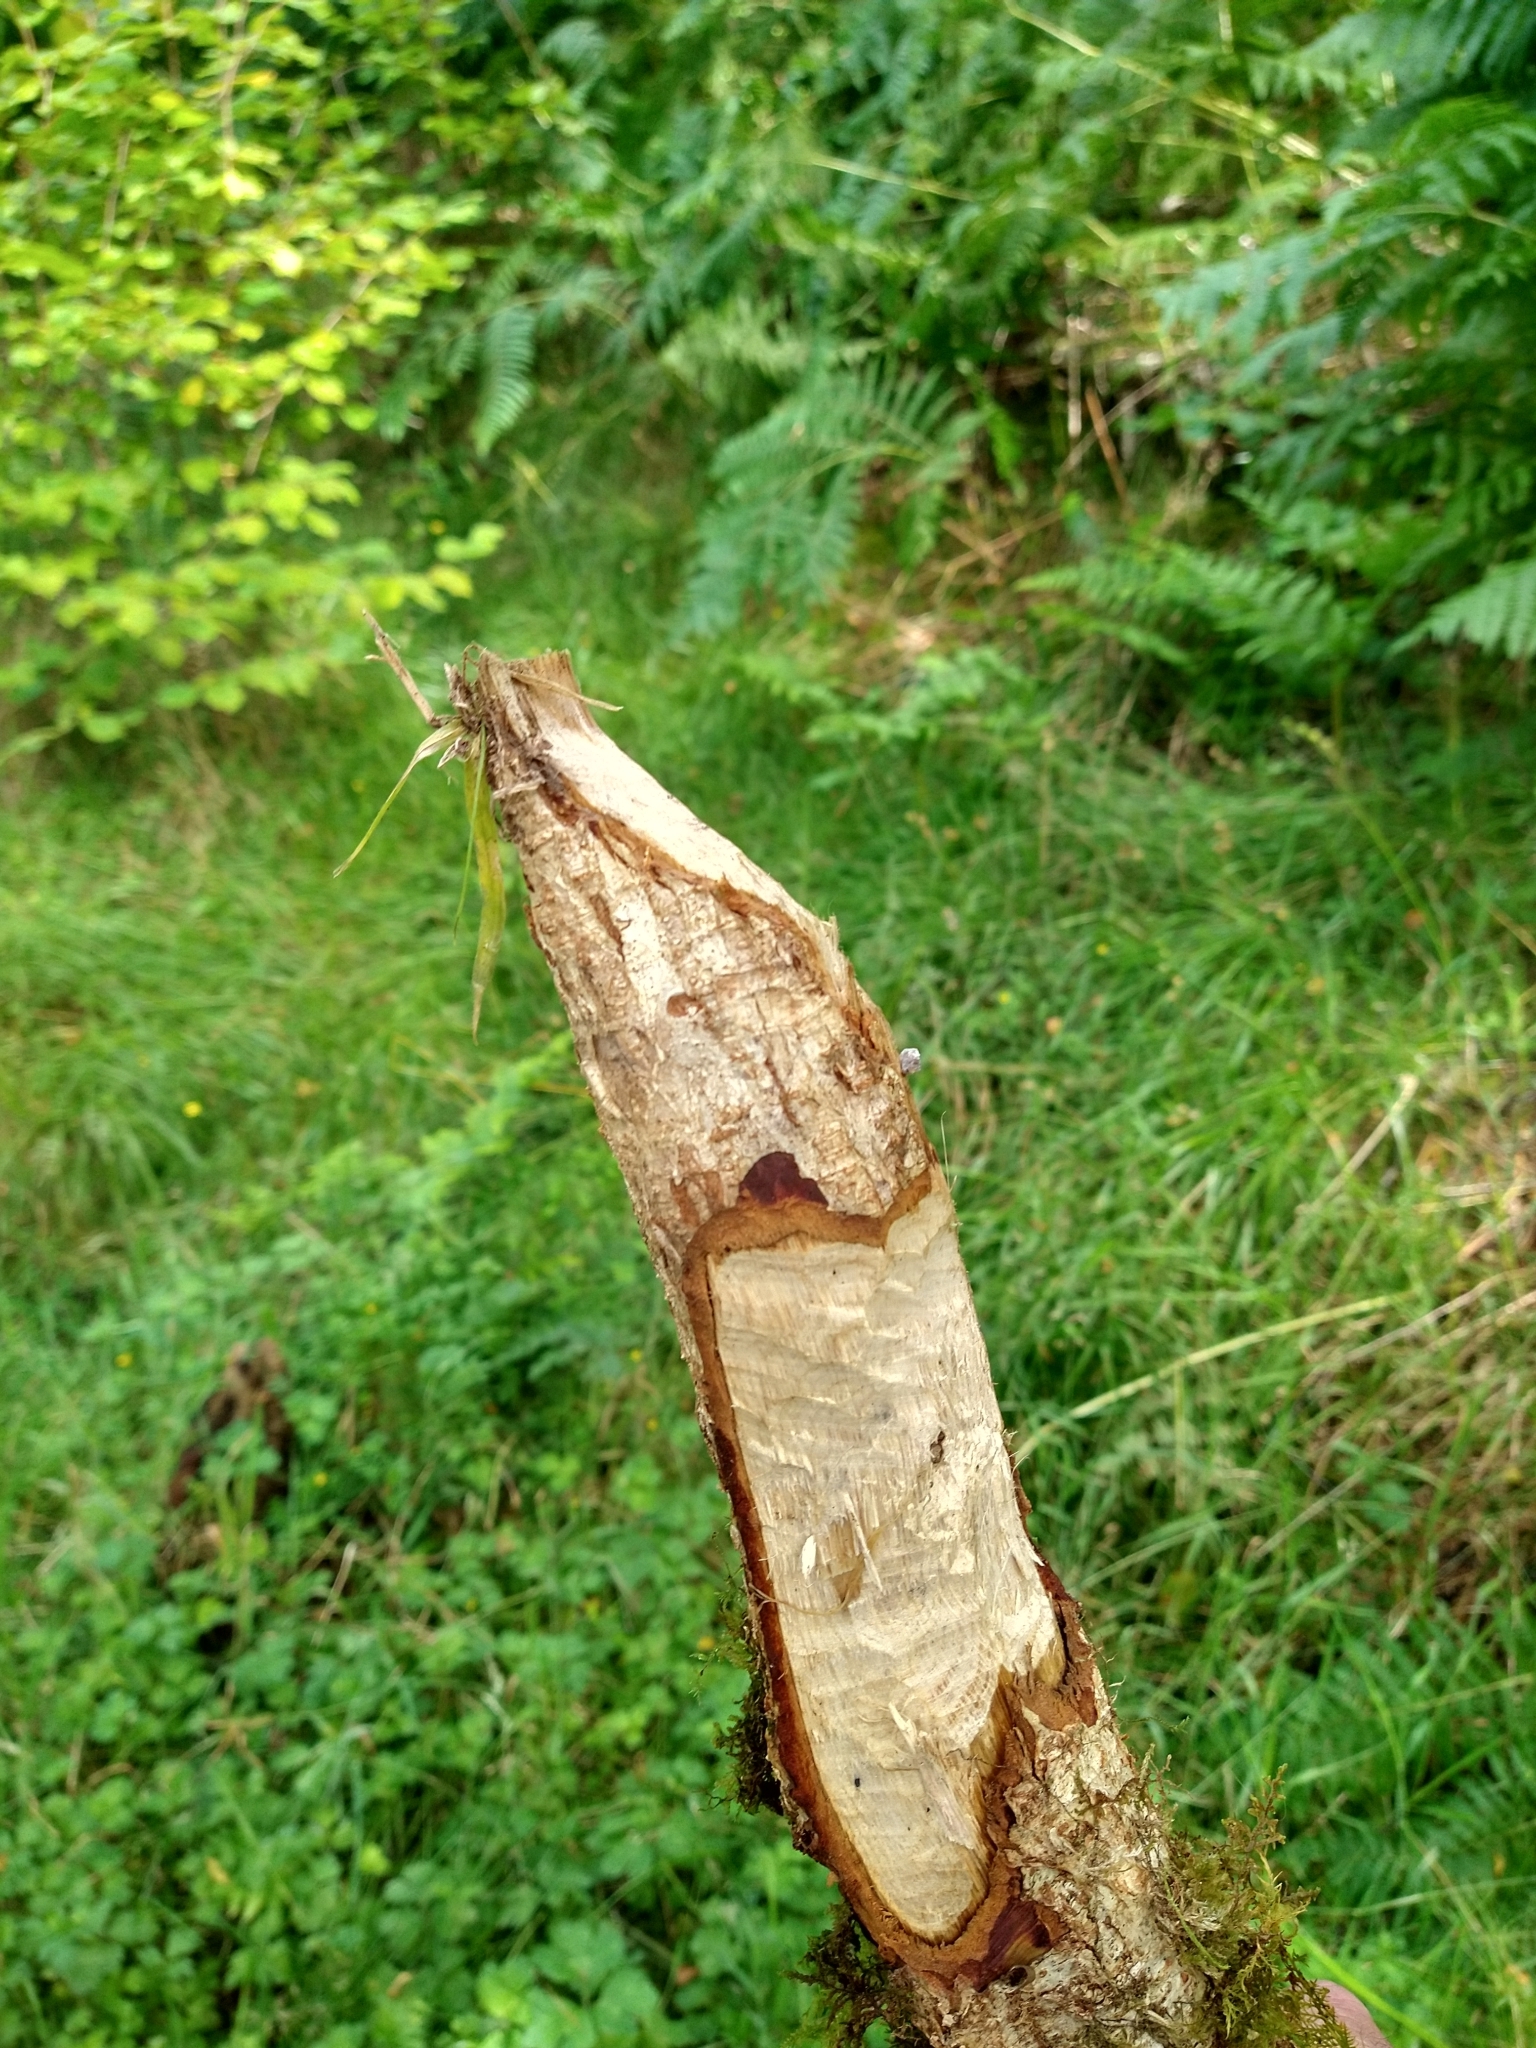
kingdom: Animalia
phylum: Chordata
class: Mammalia
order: Rodentia
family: Castoridae
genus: Castor
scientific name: Castor fiber
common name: Eurasian beaver
